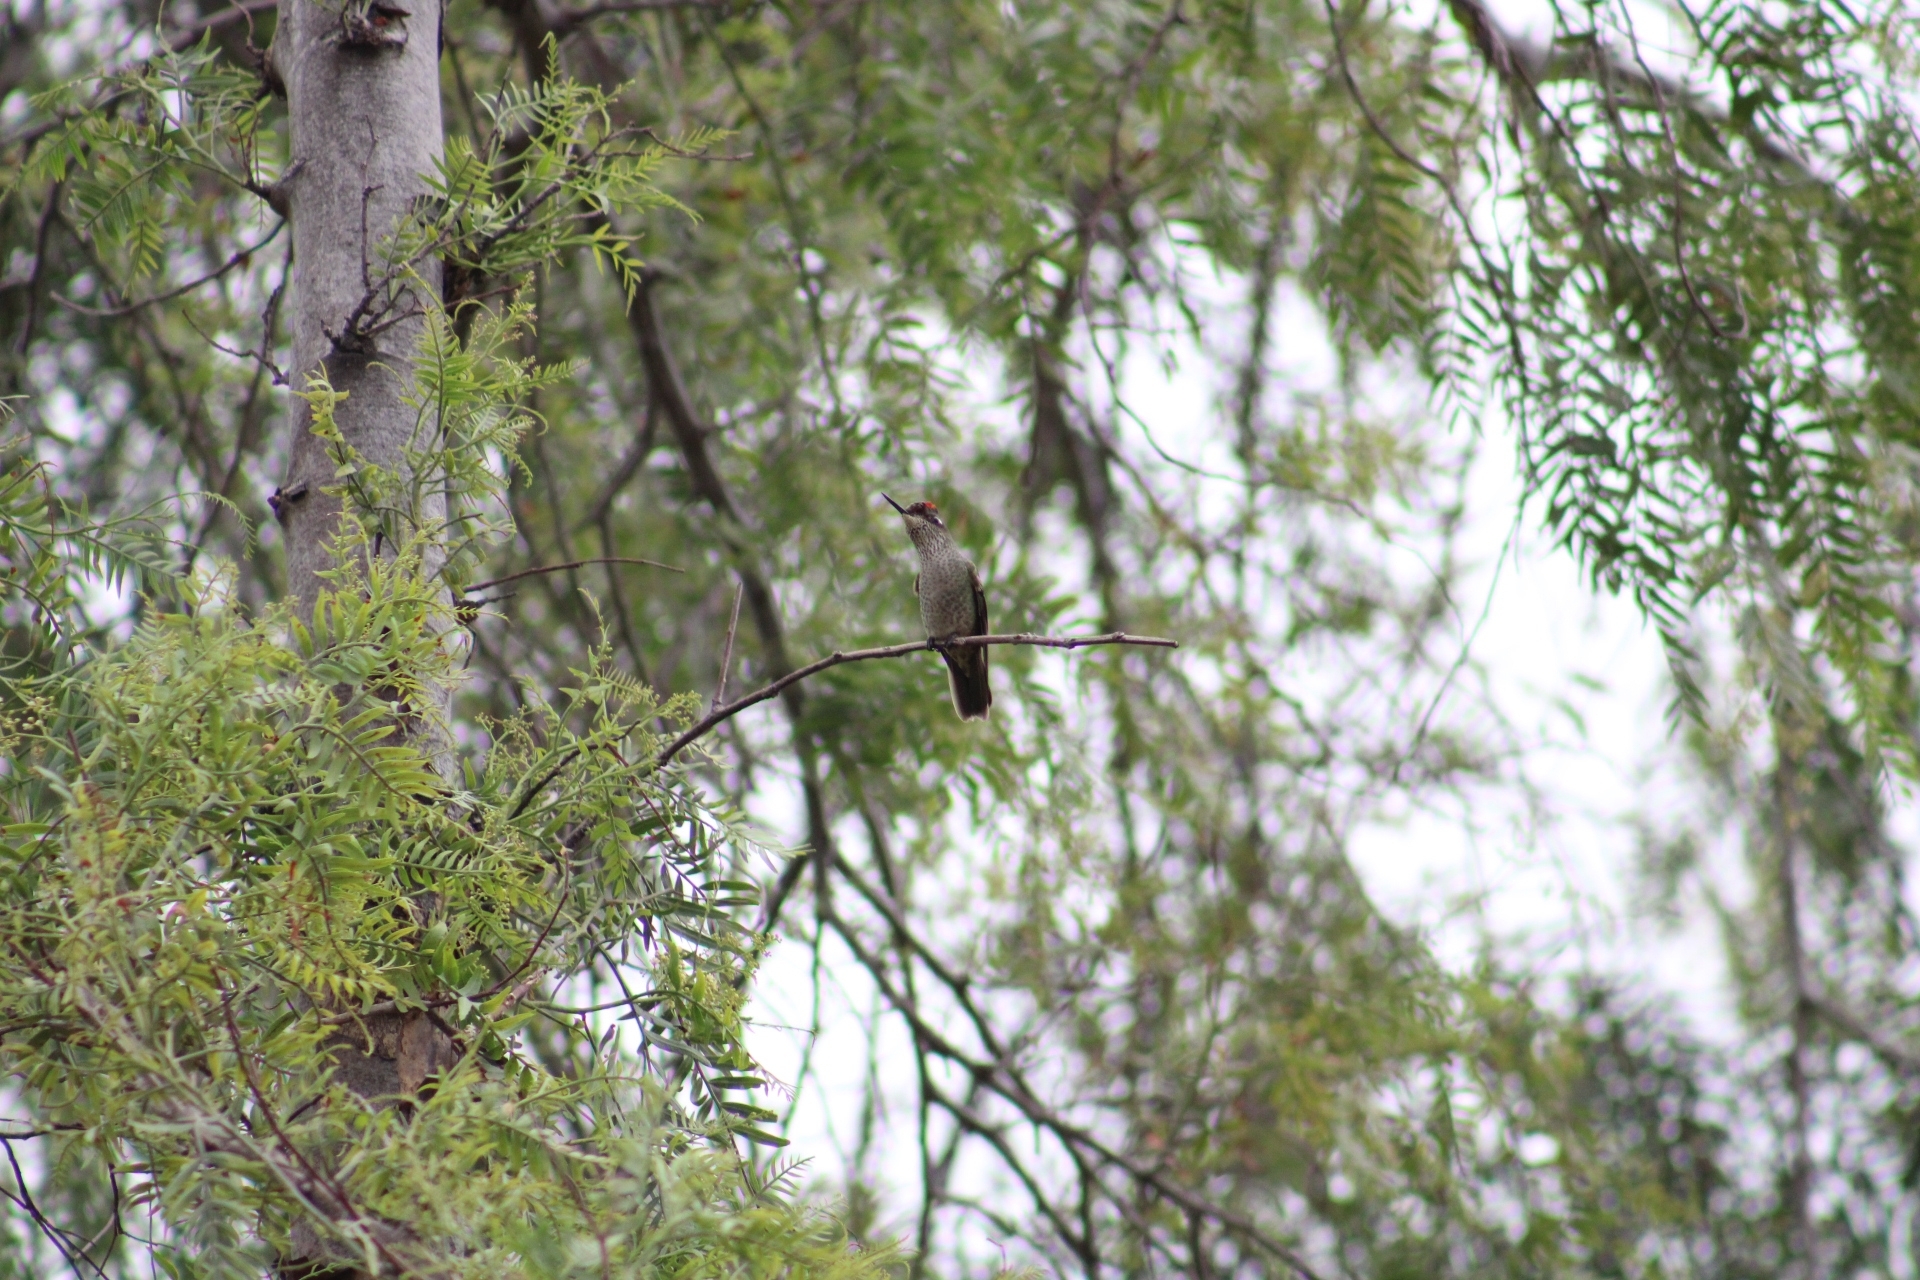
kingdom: Animalia
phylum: Chordata
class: Aves
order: Apodiformes
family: Trochilidae
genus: Sephanoides
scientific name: Sephanoides sephaniodes
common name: Green-backed firecrown
